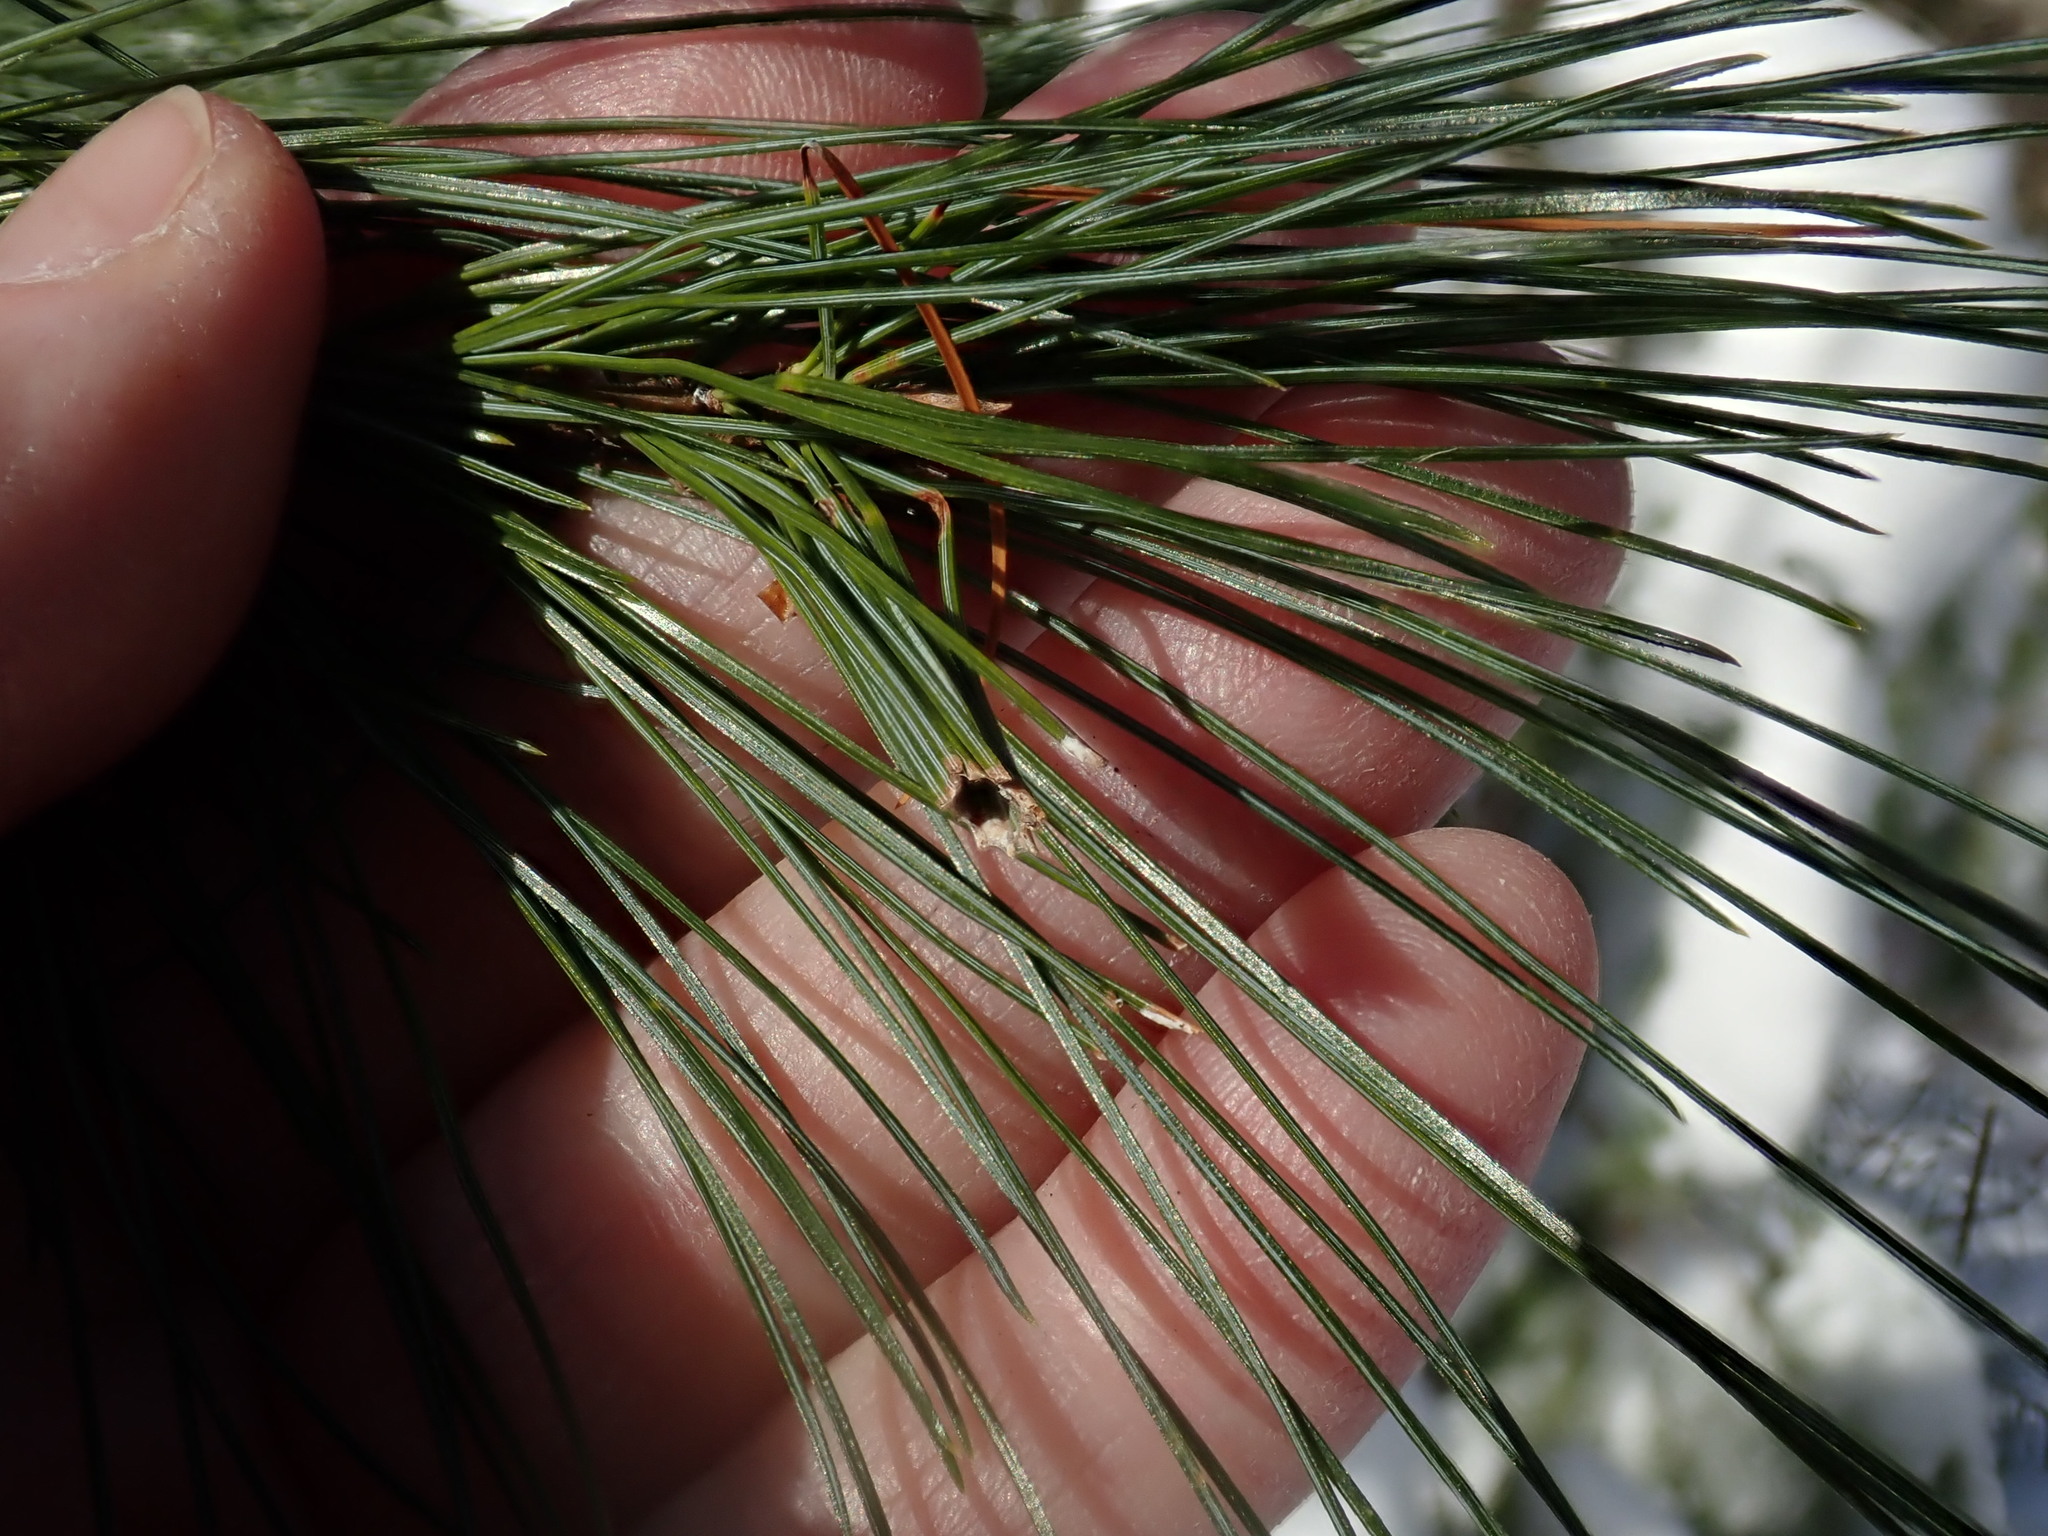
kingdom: Animalia
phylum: Arthropoda
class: Insecta
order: Lepidoptera
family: Tortricidae
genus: Argyrotaenia
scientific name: Argyrotaenia pinatubana
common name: Pine tube moth
